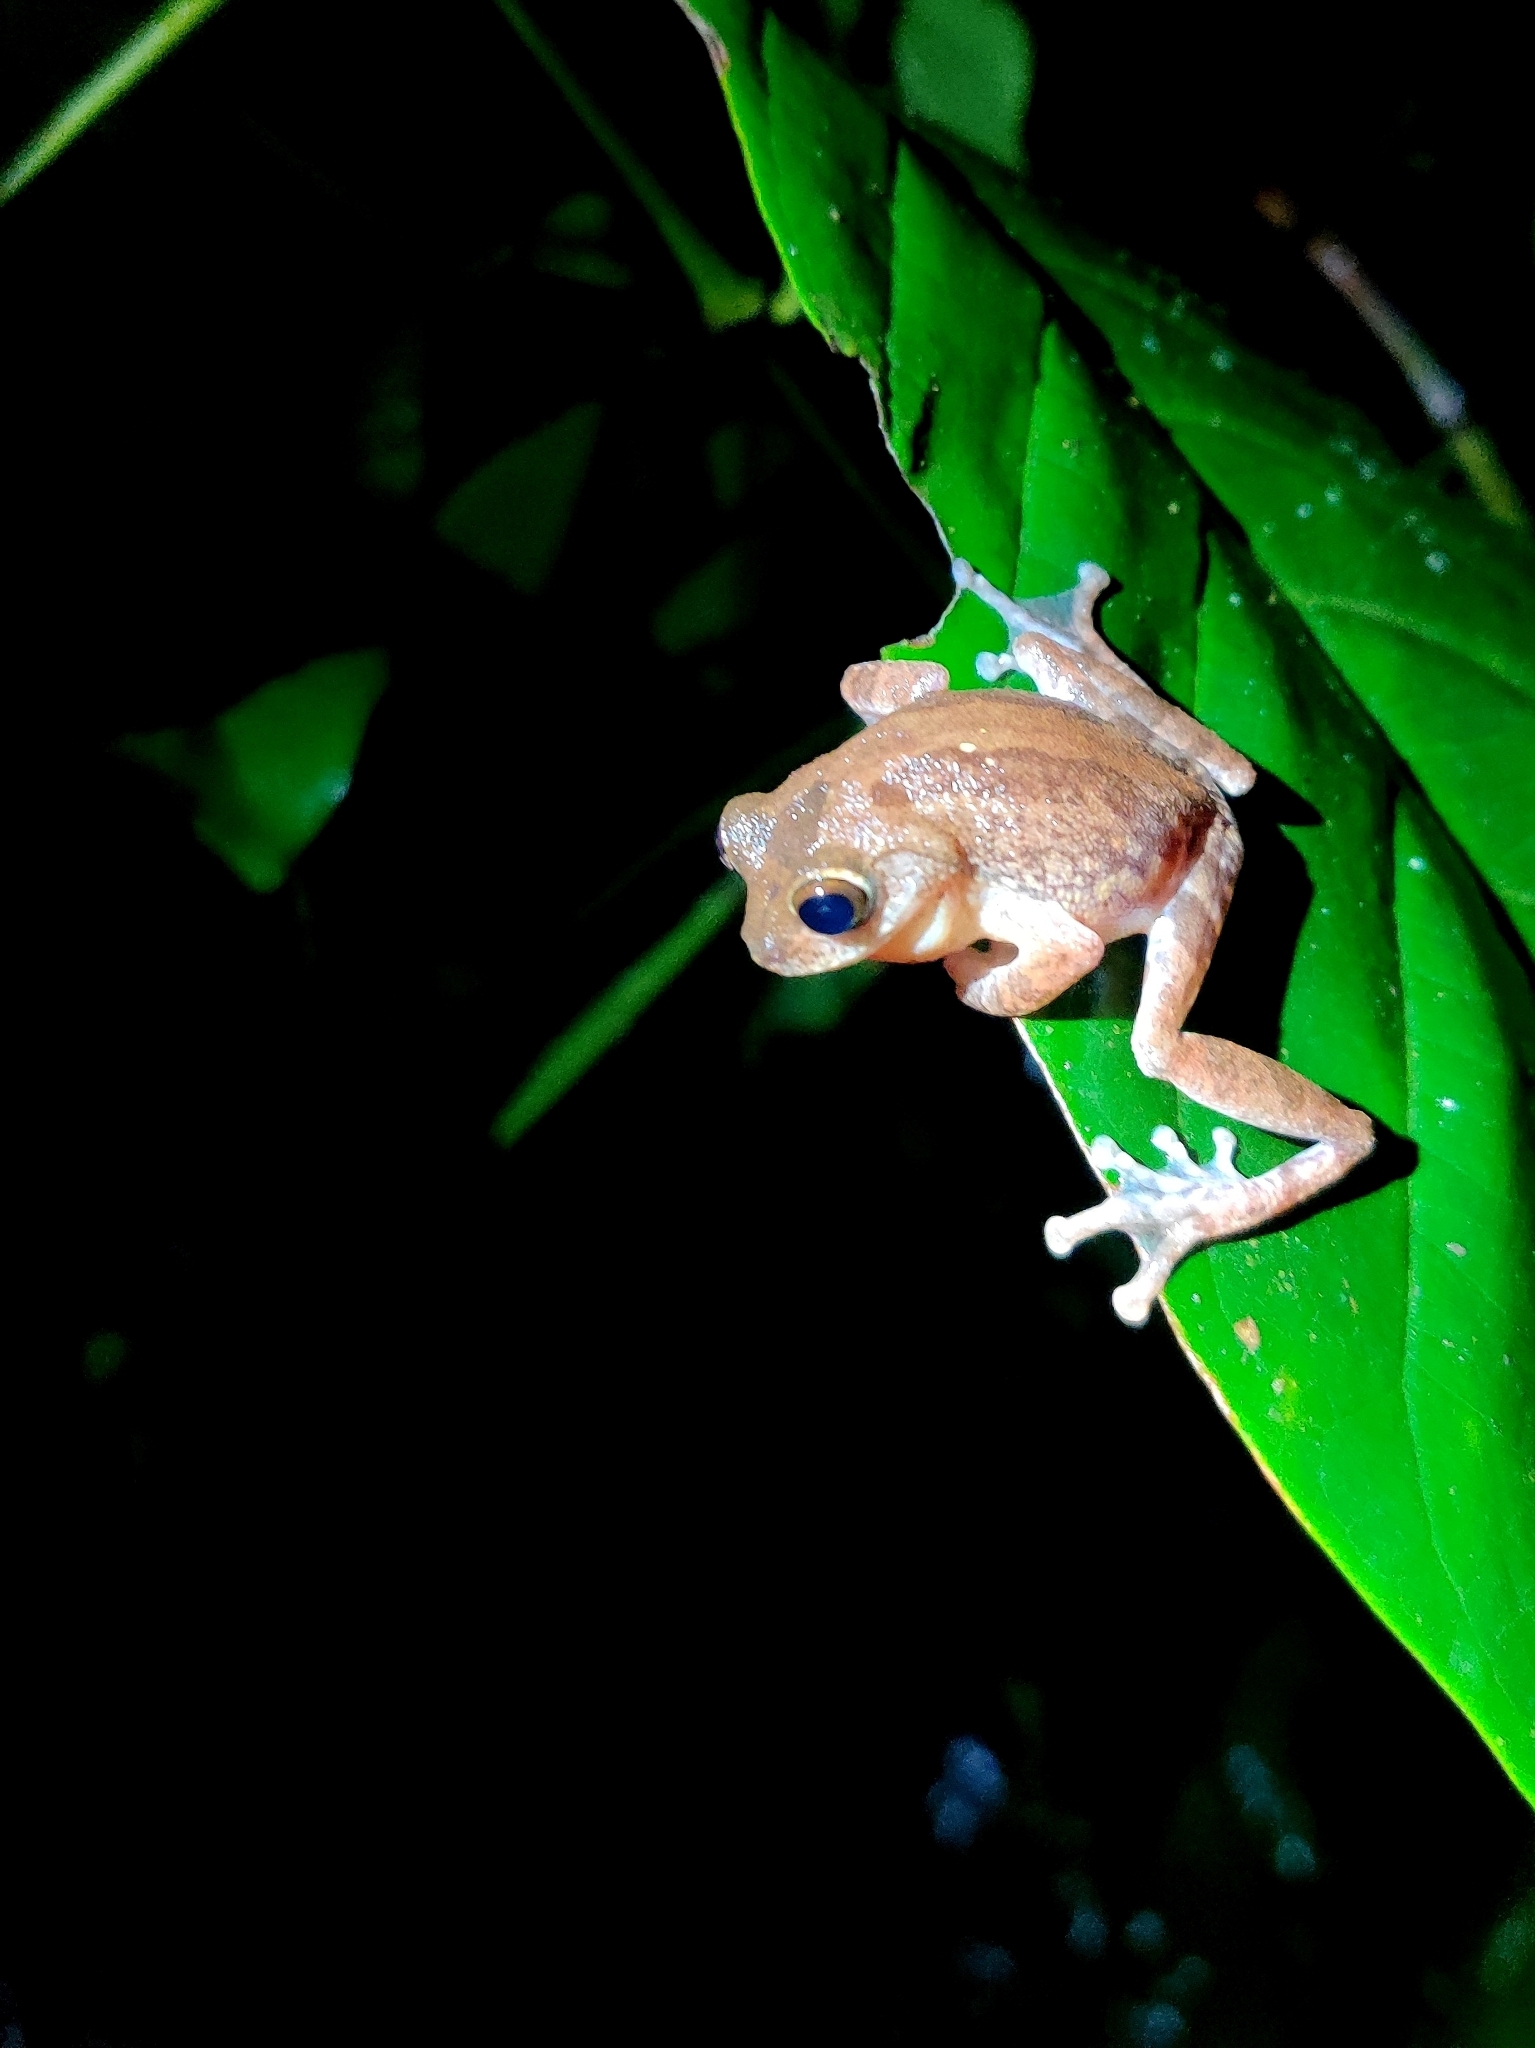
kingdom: Animalia
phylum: Chordata
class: Amphibia
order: Anura
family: Rhacophoridae
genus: Raorchestes
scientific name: Raorchestes hassanensis
